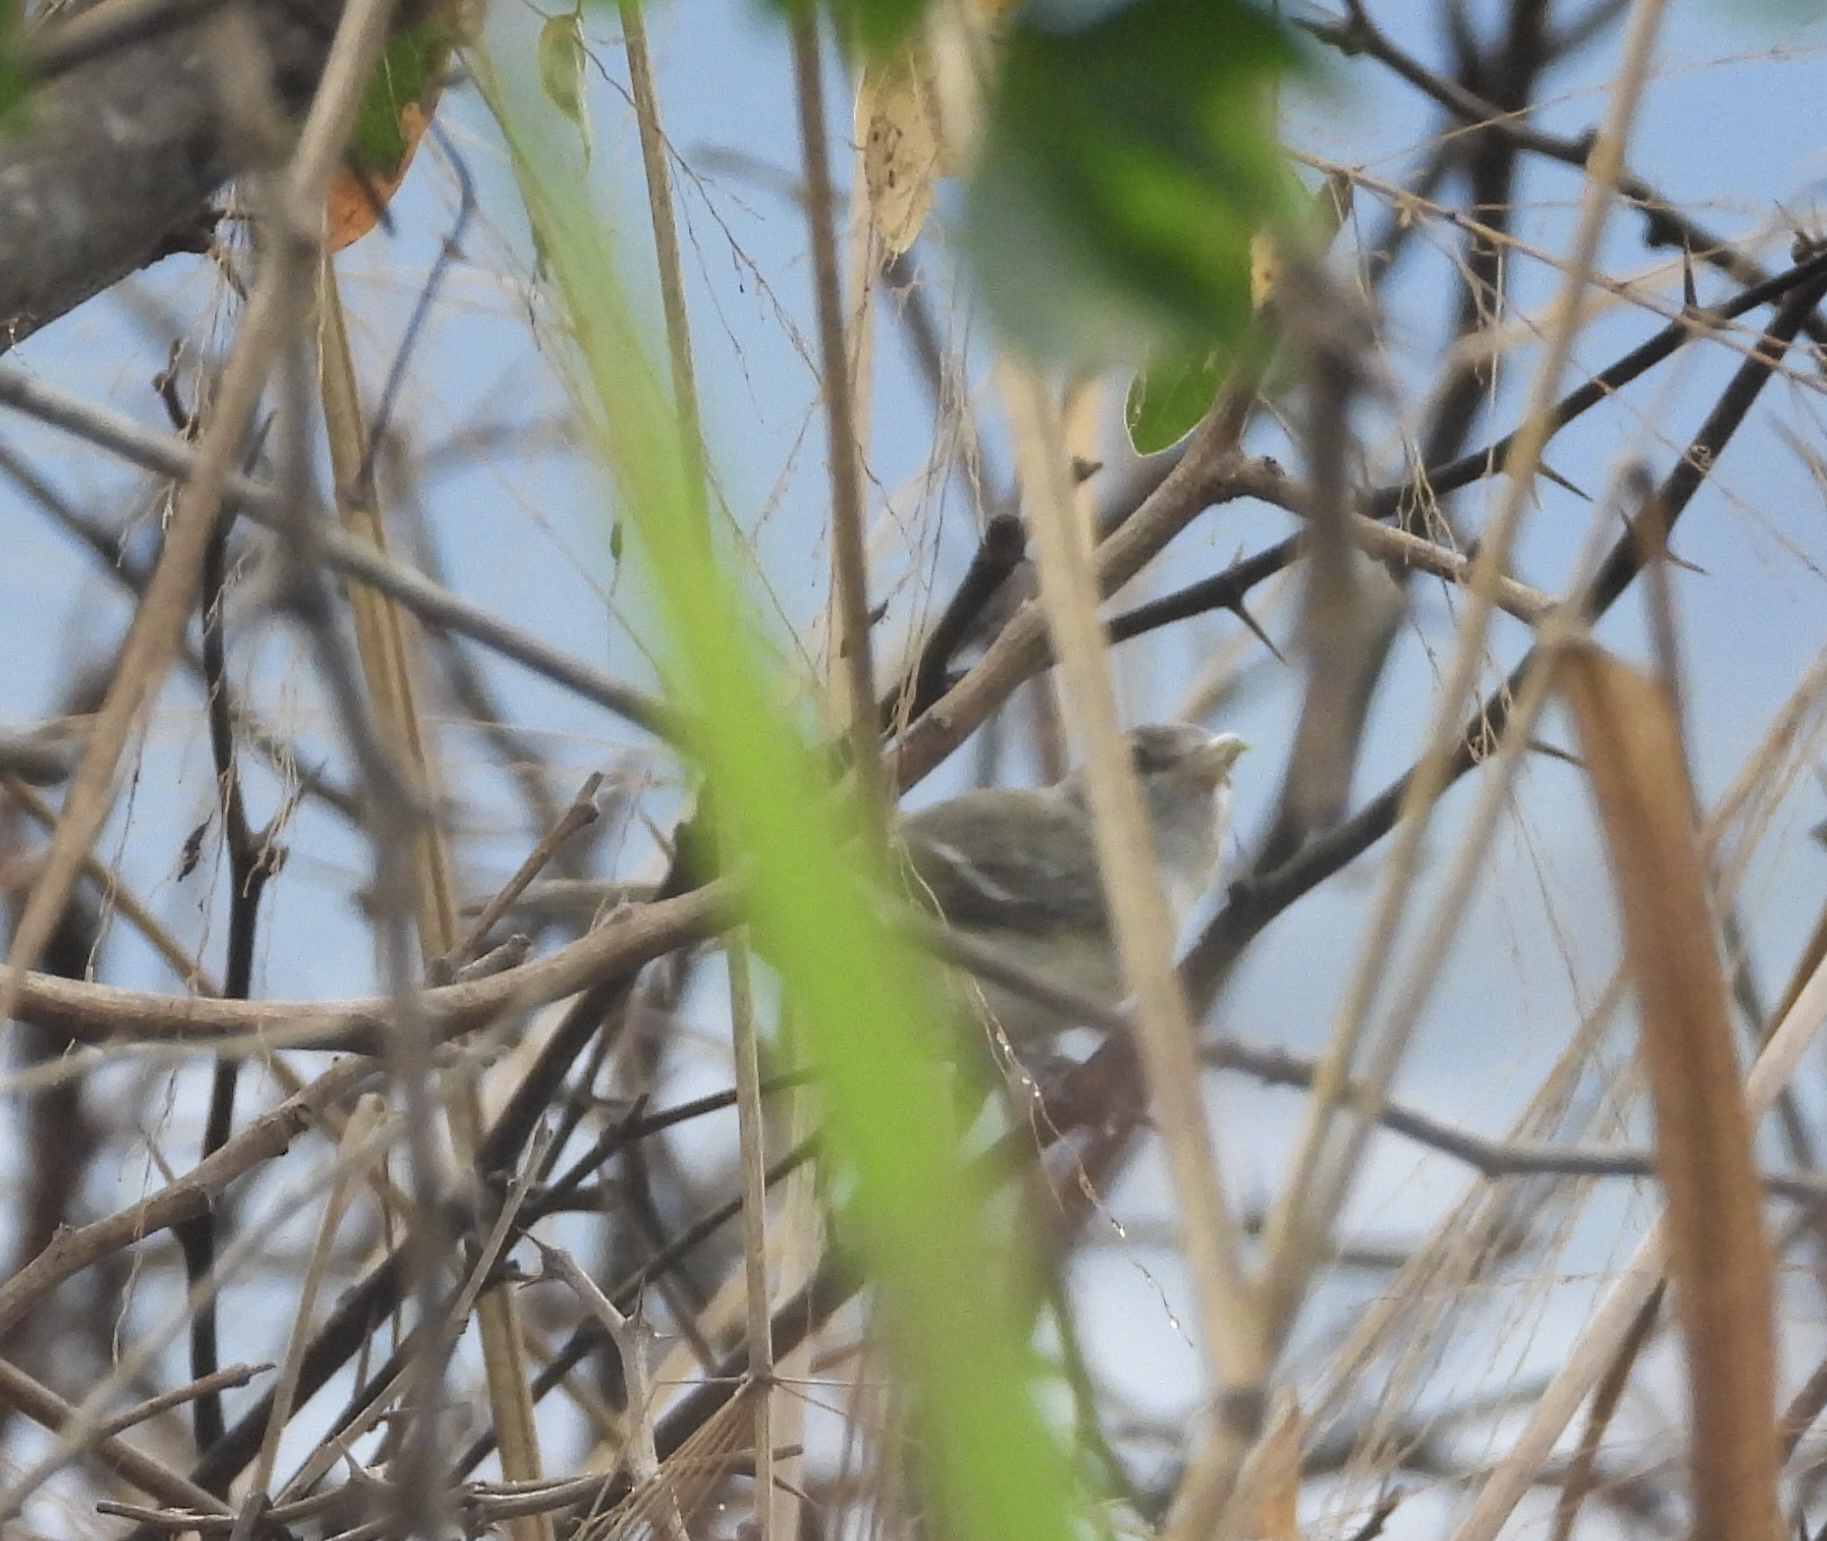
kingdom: Animalia
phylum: Chordata
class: Aves
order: Passeriformes
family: Vireonidae
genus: Vireo
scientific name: Vireo bellii
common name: Bell's vireo
